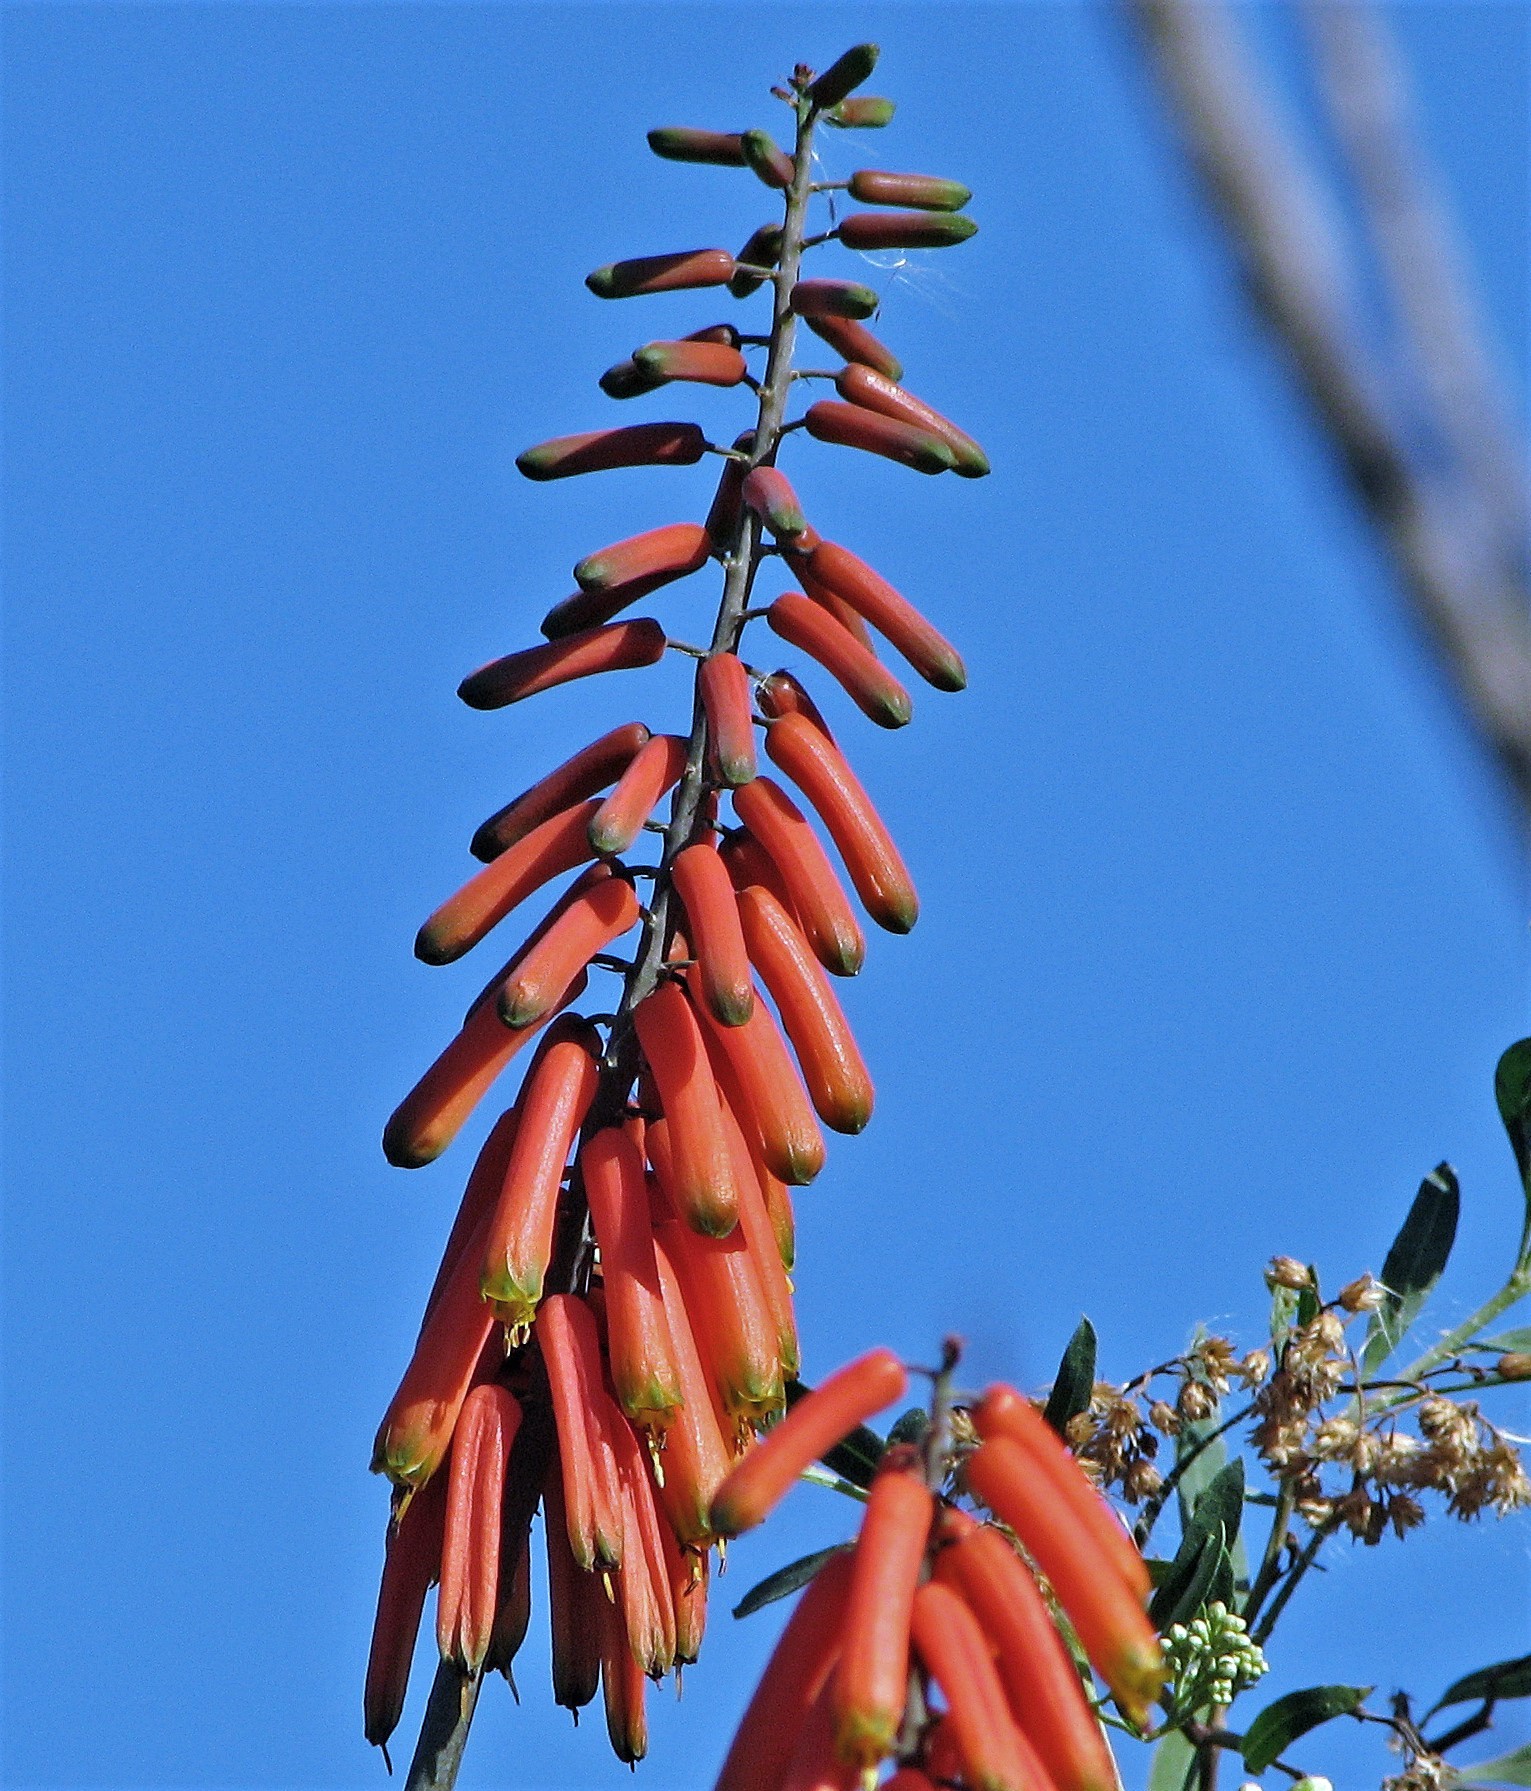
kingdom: Plantae
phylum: Tracheophyta
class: Liliopsida
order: Asparagales
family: Asphodelaceae
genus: Aloiampelos
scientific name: Aloiampelos ciliaris
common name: Climbing aloe
